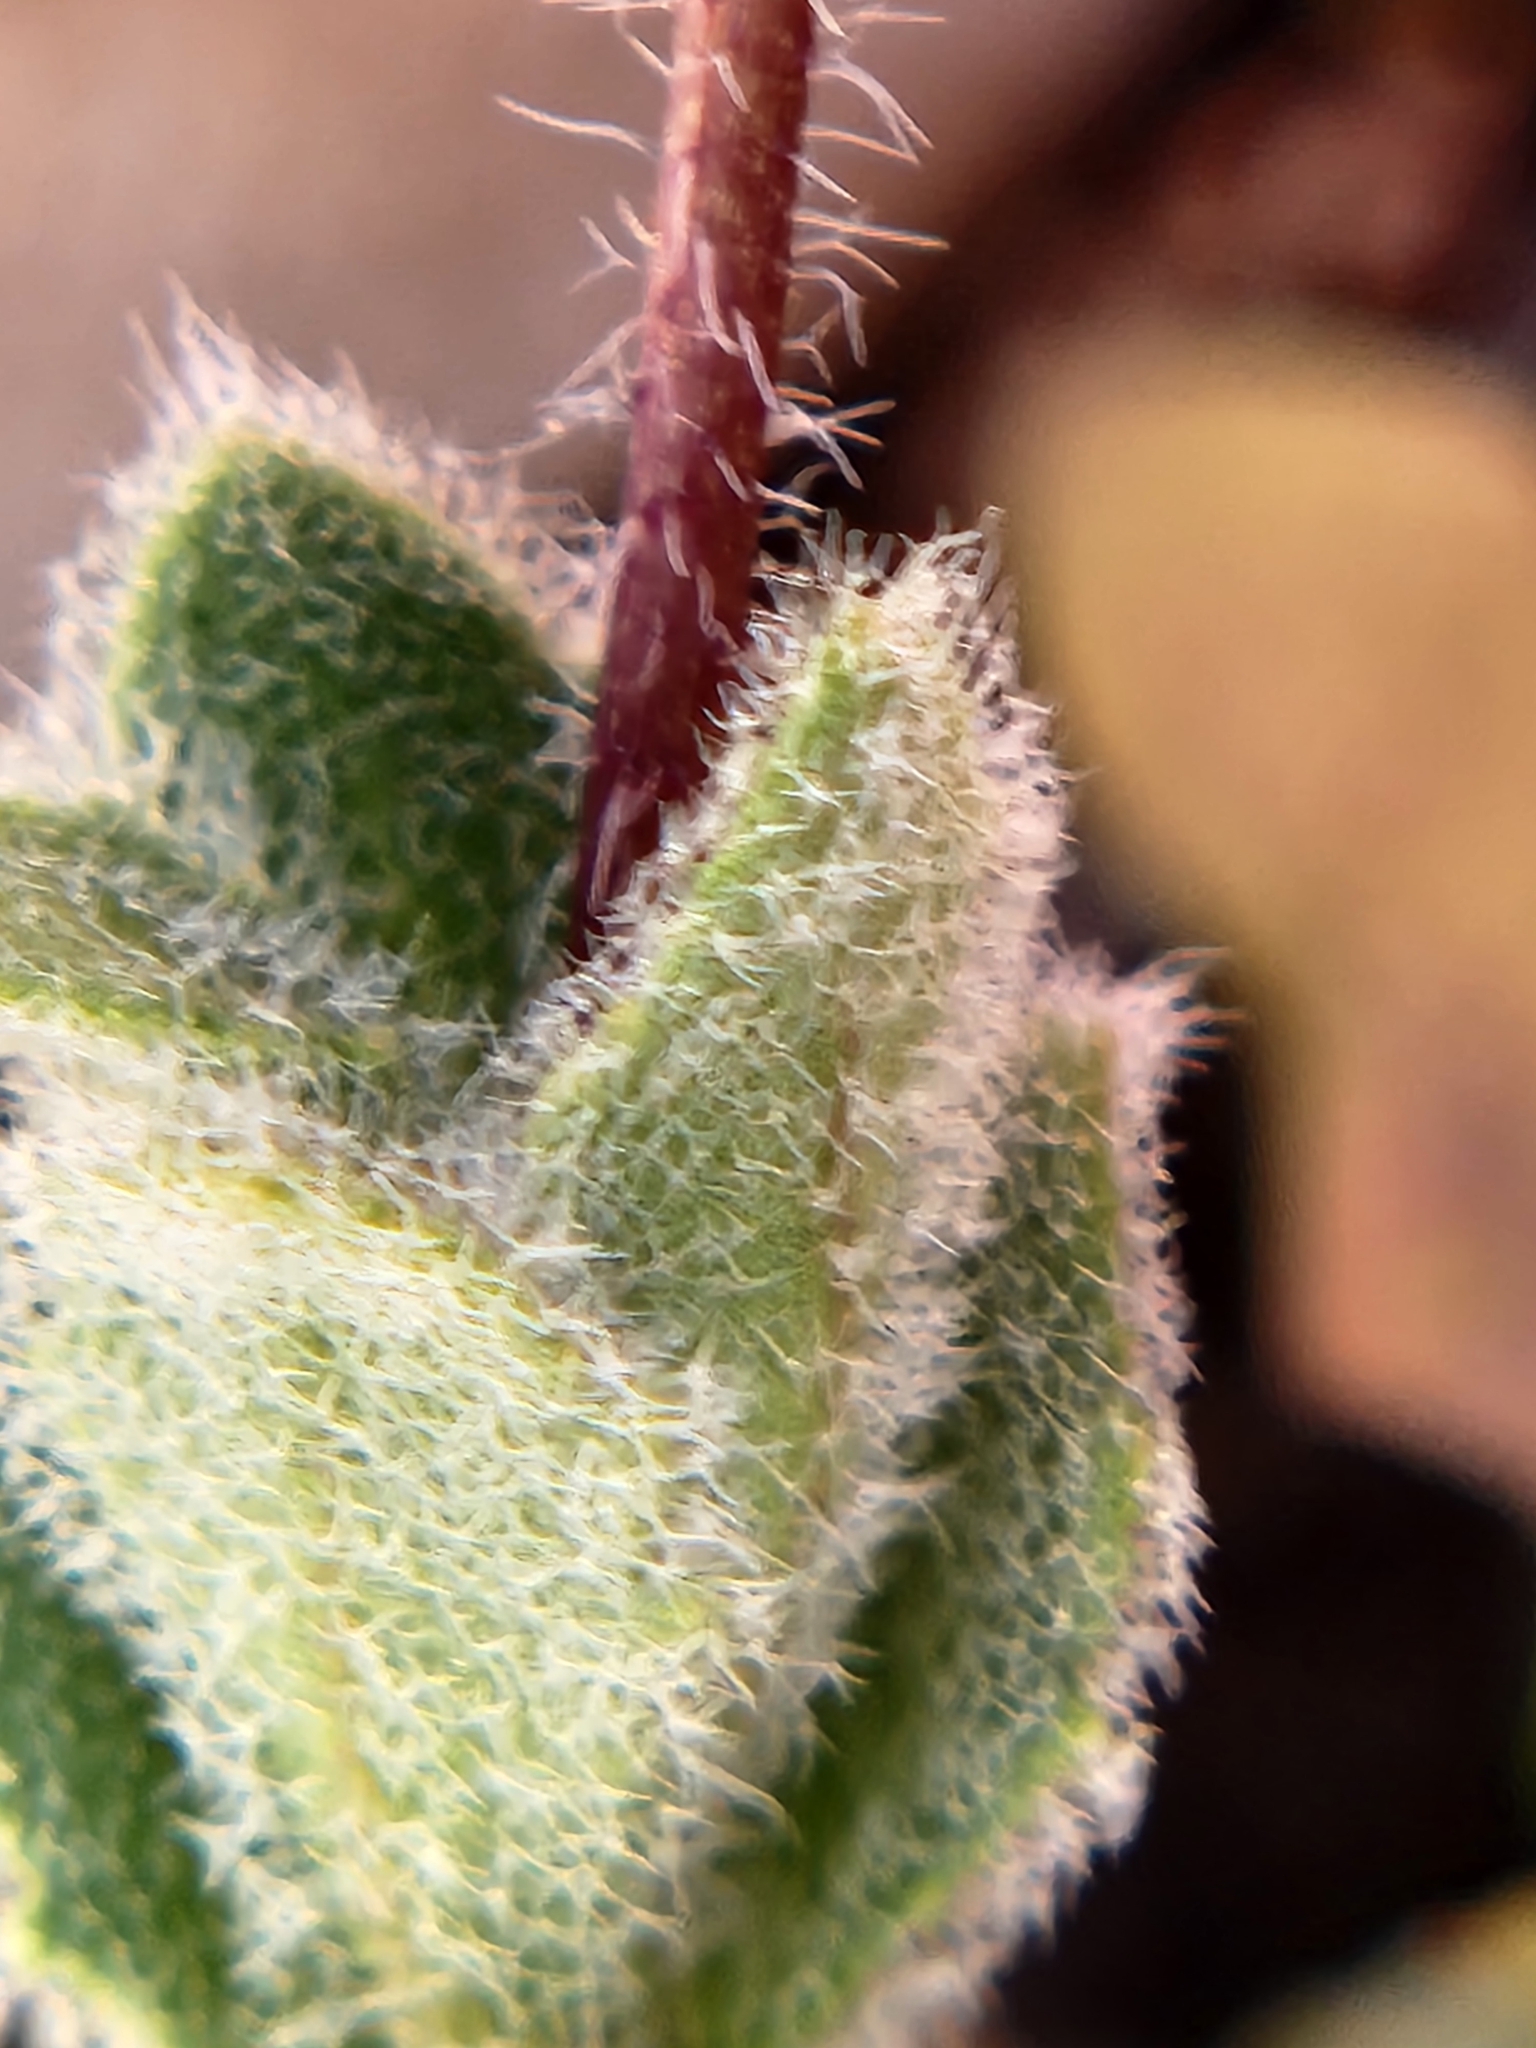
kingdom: Plantae
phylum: Tracheophyta
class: Magnoliopsida
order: Brassicales
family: Brassicaceae
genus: Tomostima
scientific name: Tomostima reptans
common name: Carolina draba
